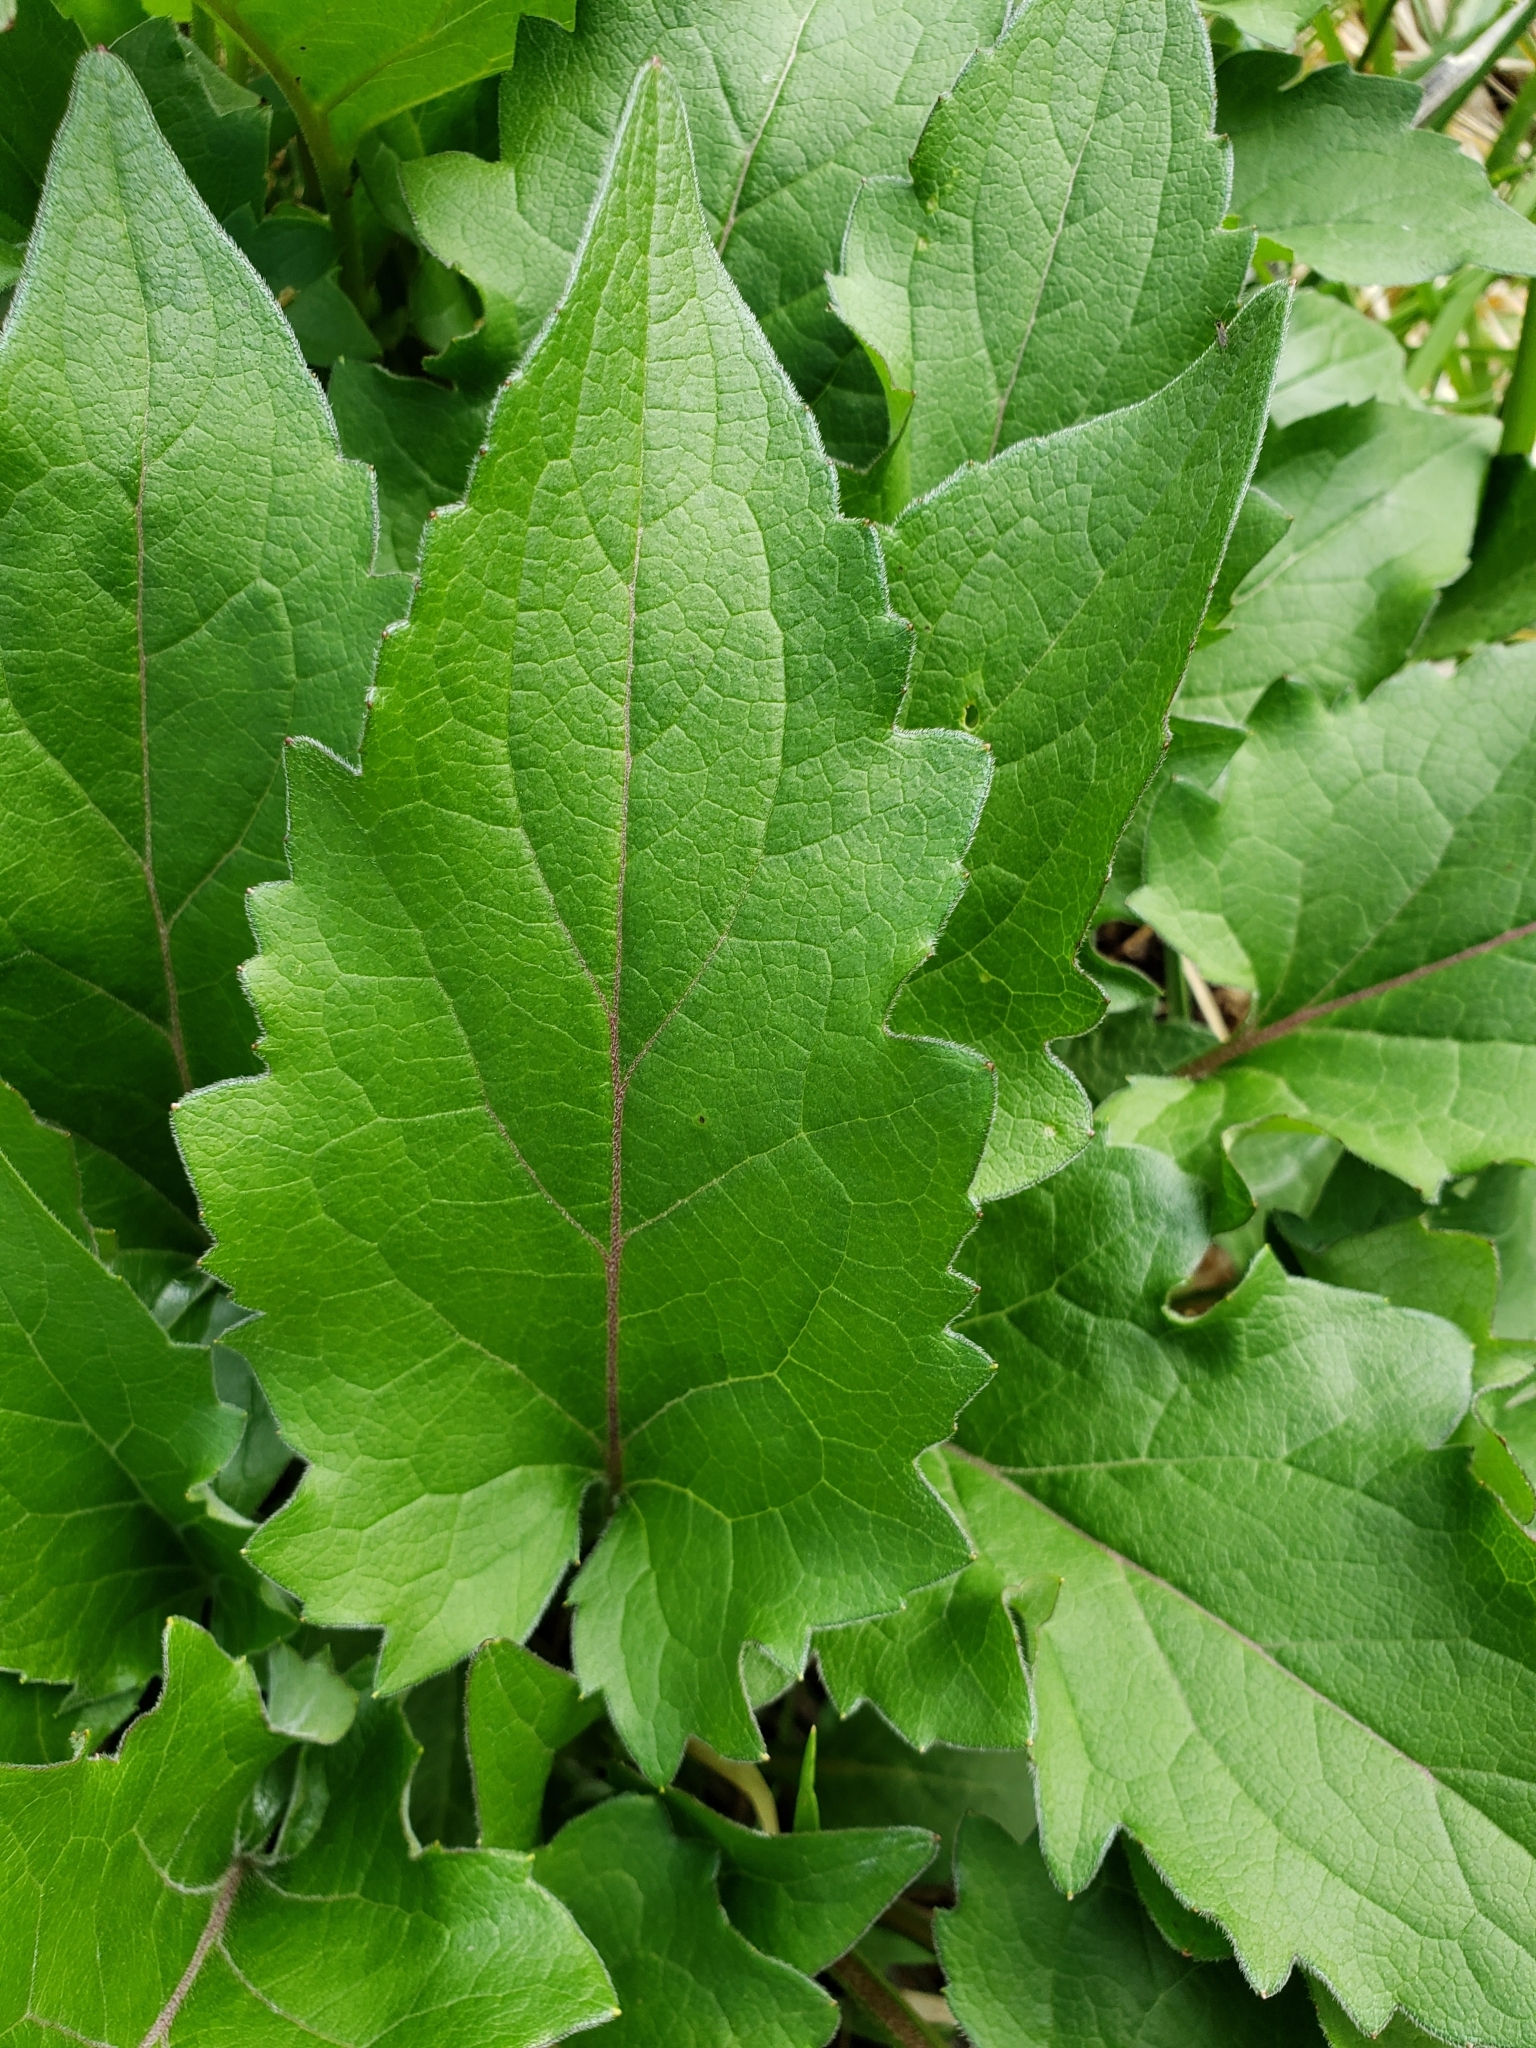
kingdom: Plantae
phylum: Tracheophyta
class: Magnoliopsida
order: Asterales
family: Asteraceae
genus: Silphium
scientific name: Silphium perfoliatum
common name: Cup-plant
